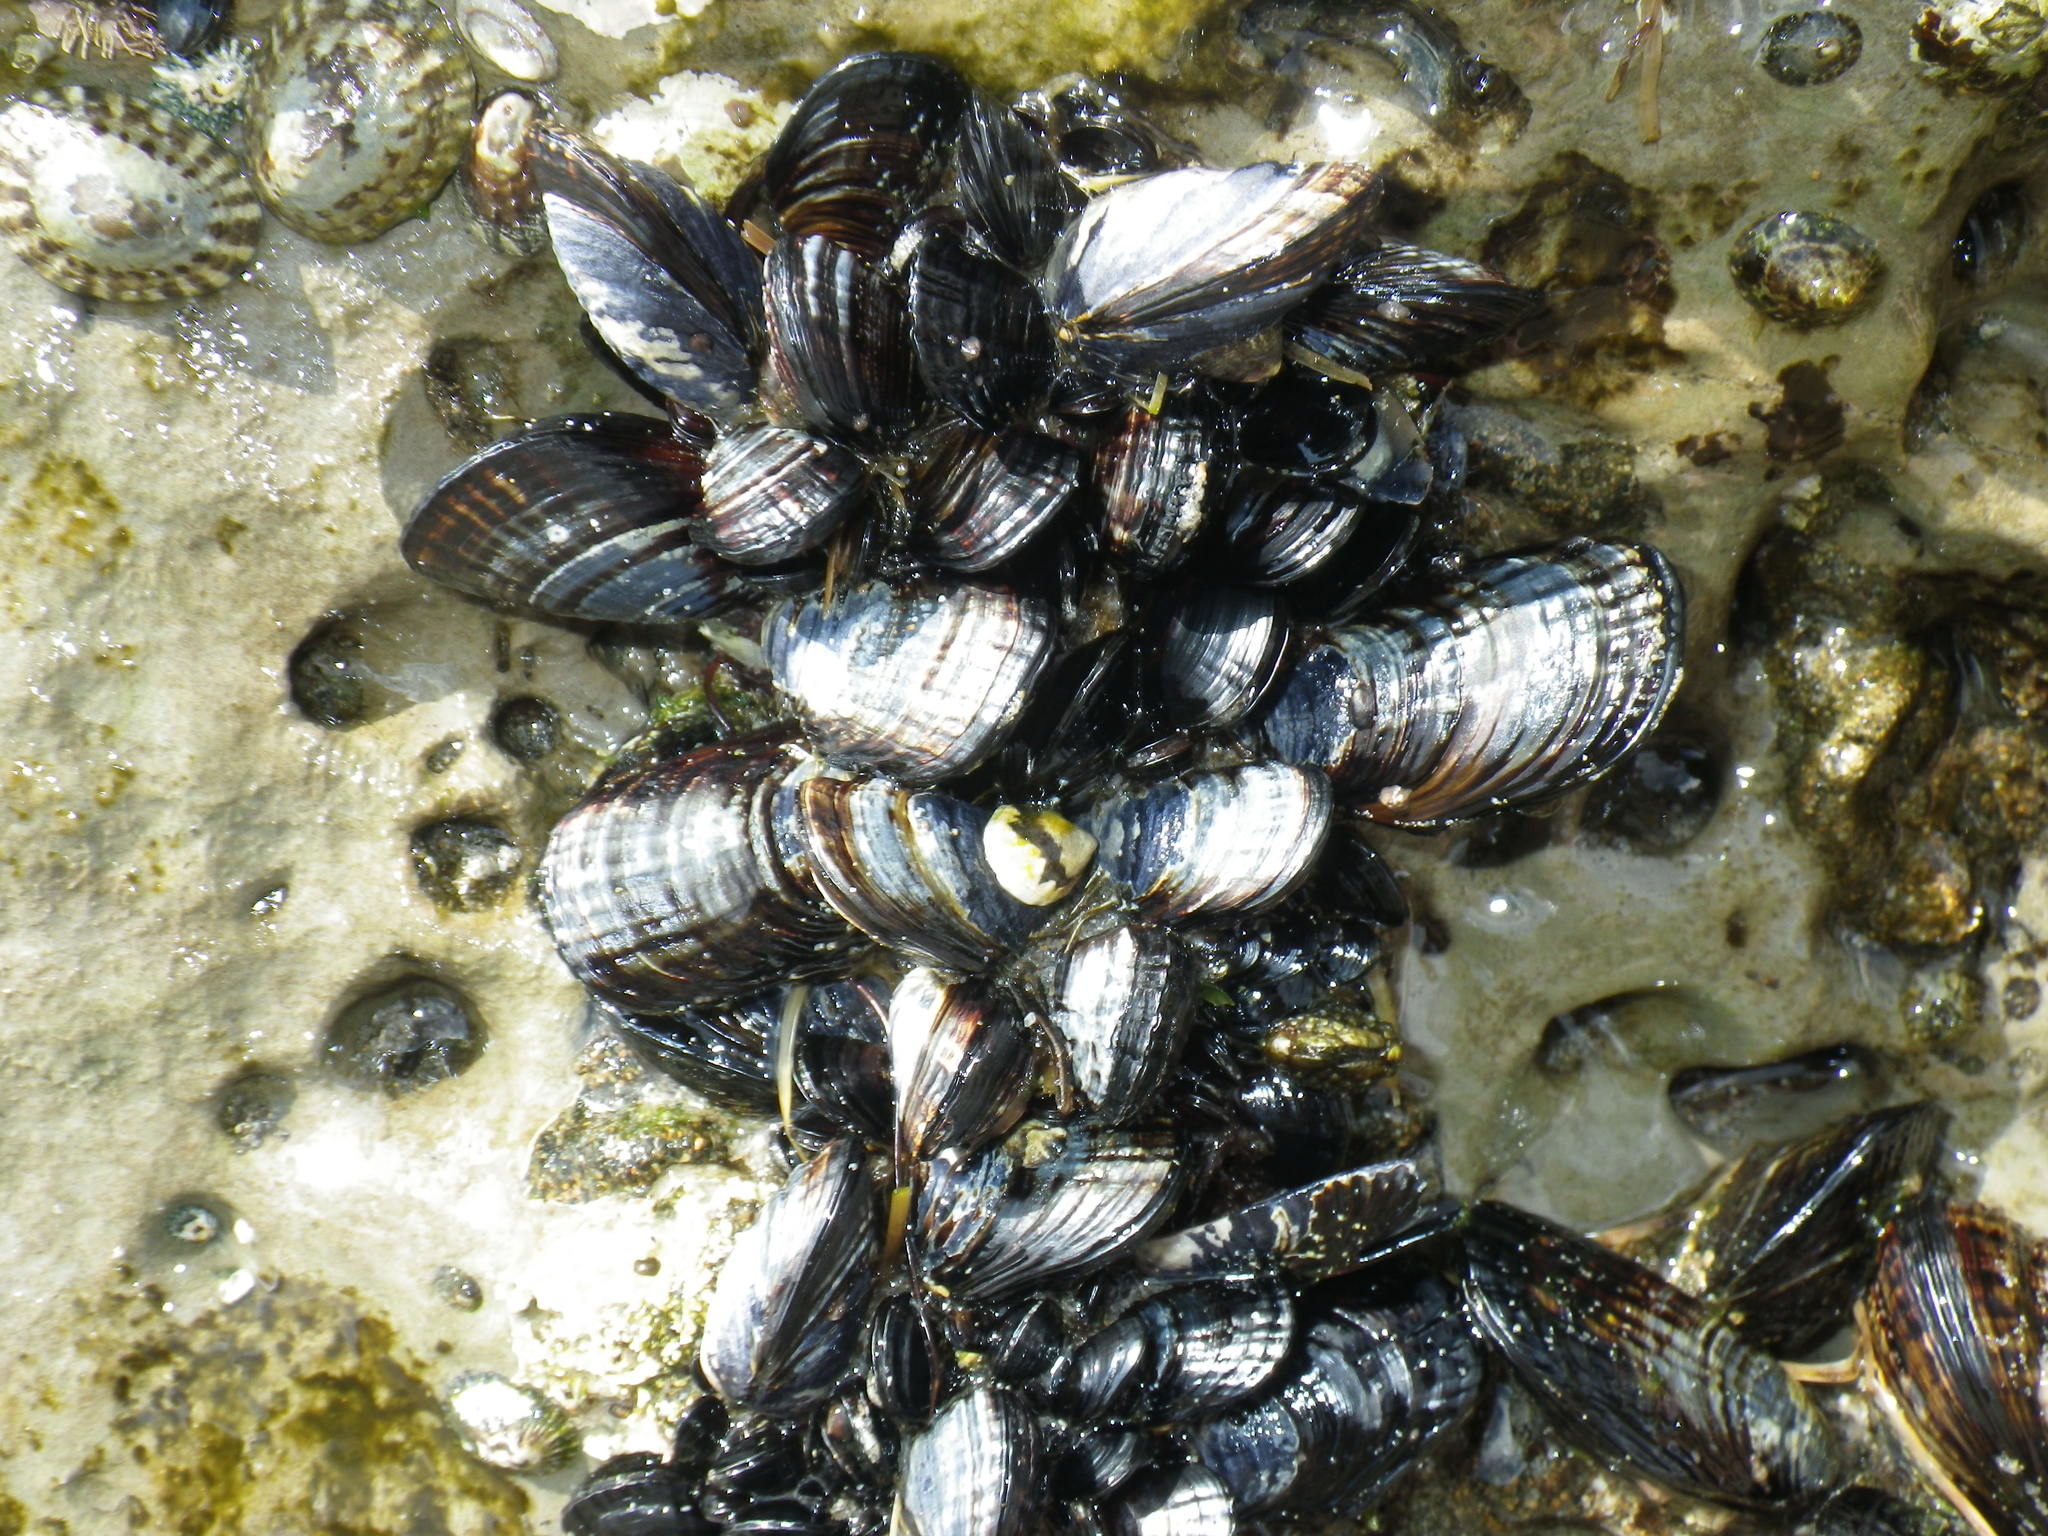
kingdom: Animalia
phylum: Mollusca
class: Bivalvia
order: Mytilida
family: Mytilidae
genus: Mytilus
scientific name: Mytilus californianus
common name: California mussel
